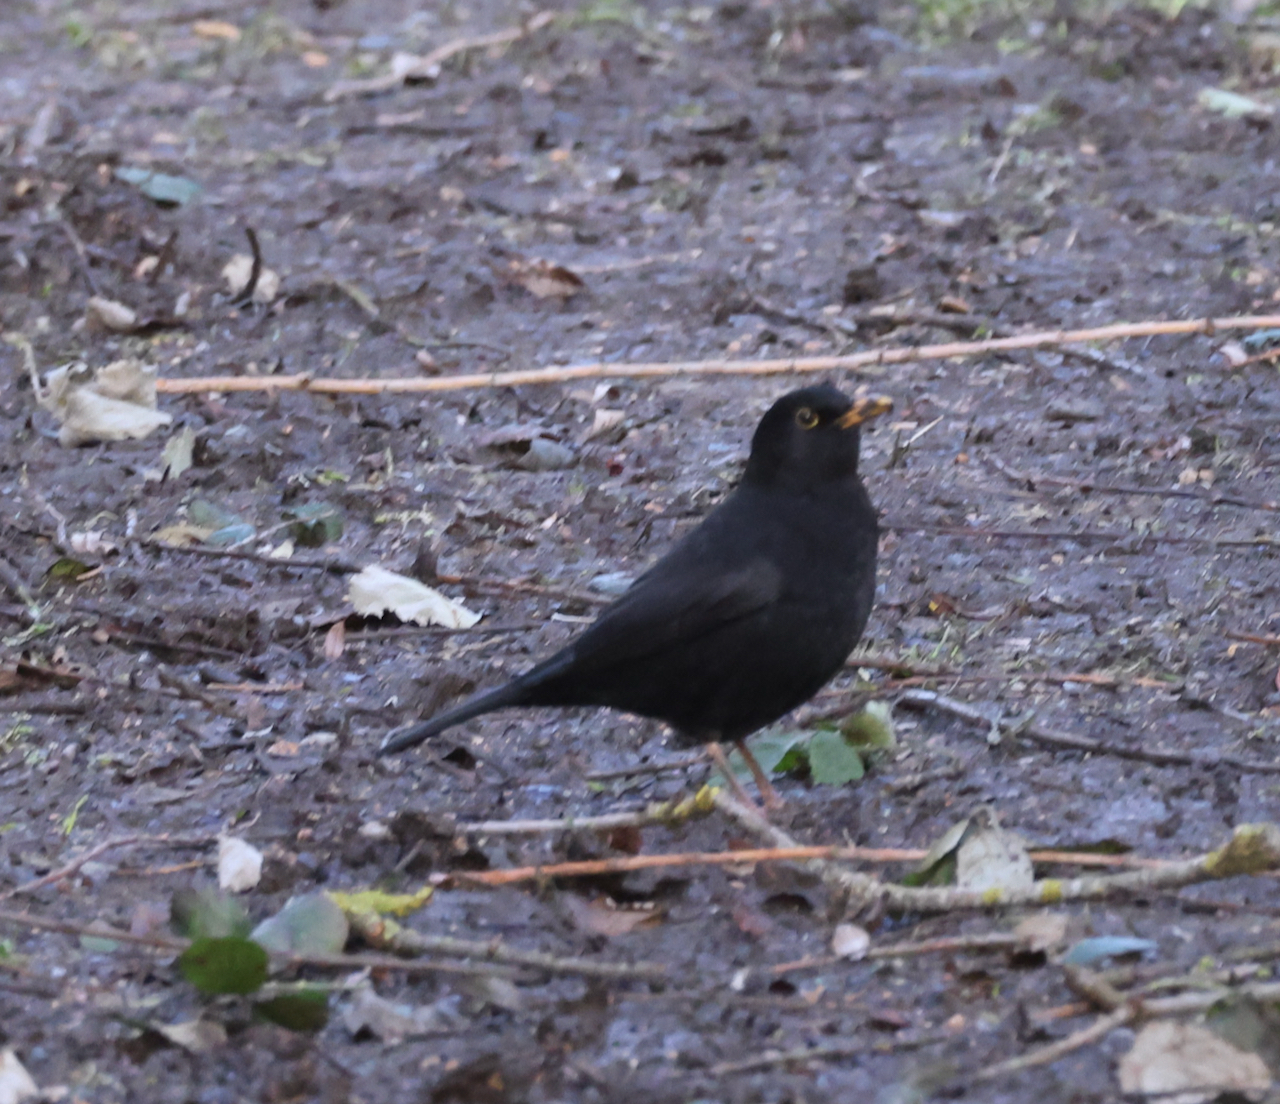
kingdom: Animalia
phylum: Chordata
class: Aves
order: Passeriformes
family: Turdidae
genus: Turdus
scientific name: Turdus merula
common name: Common blackbird
